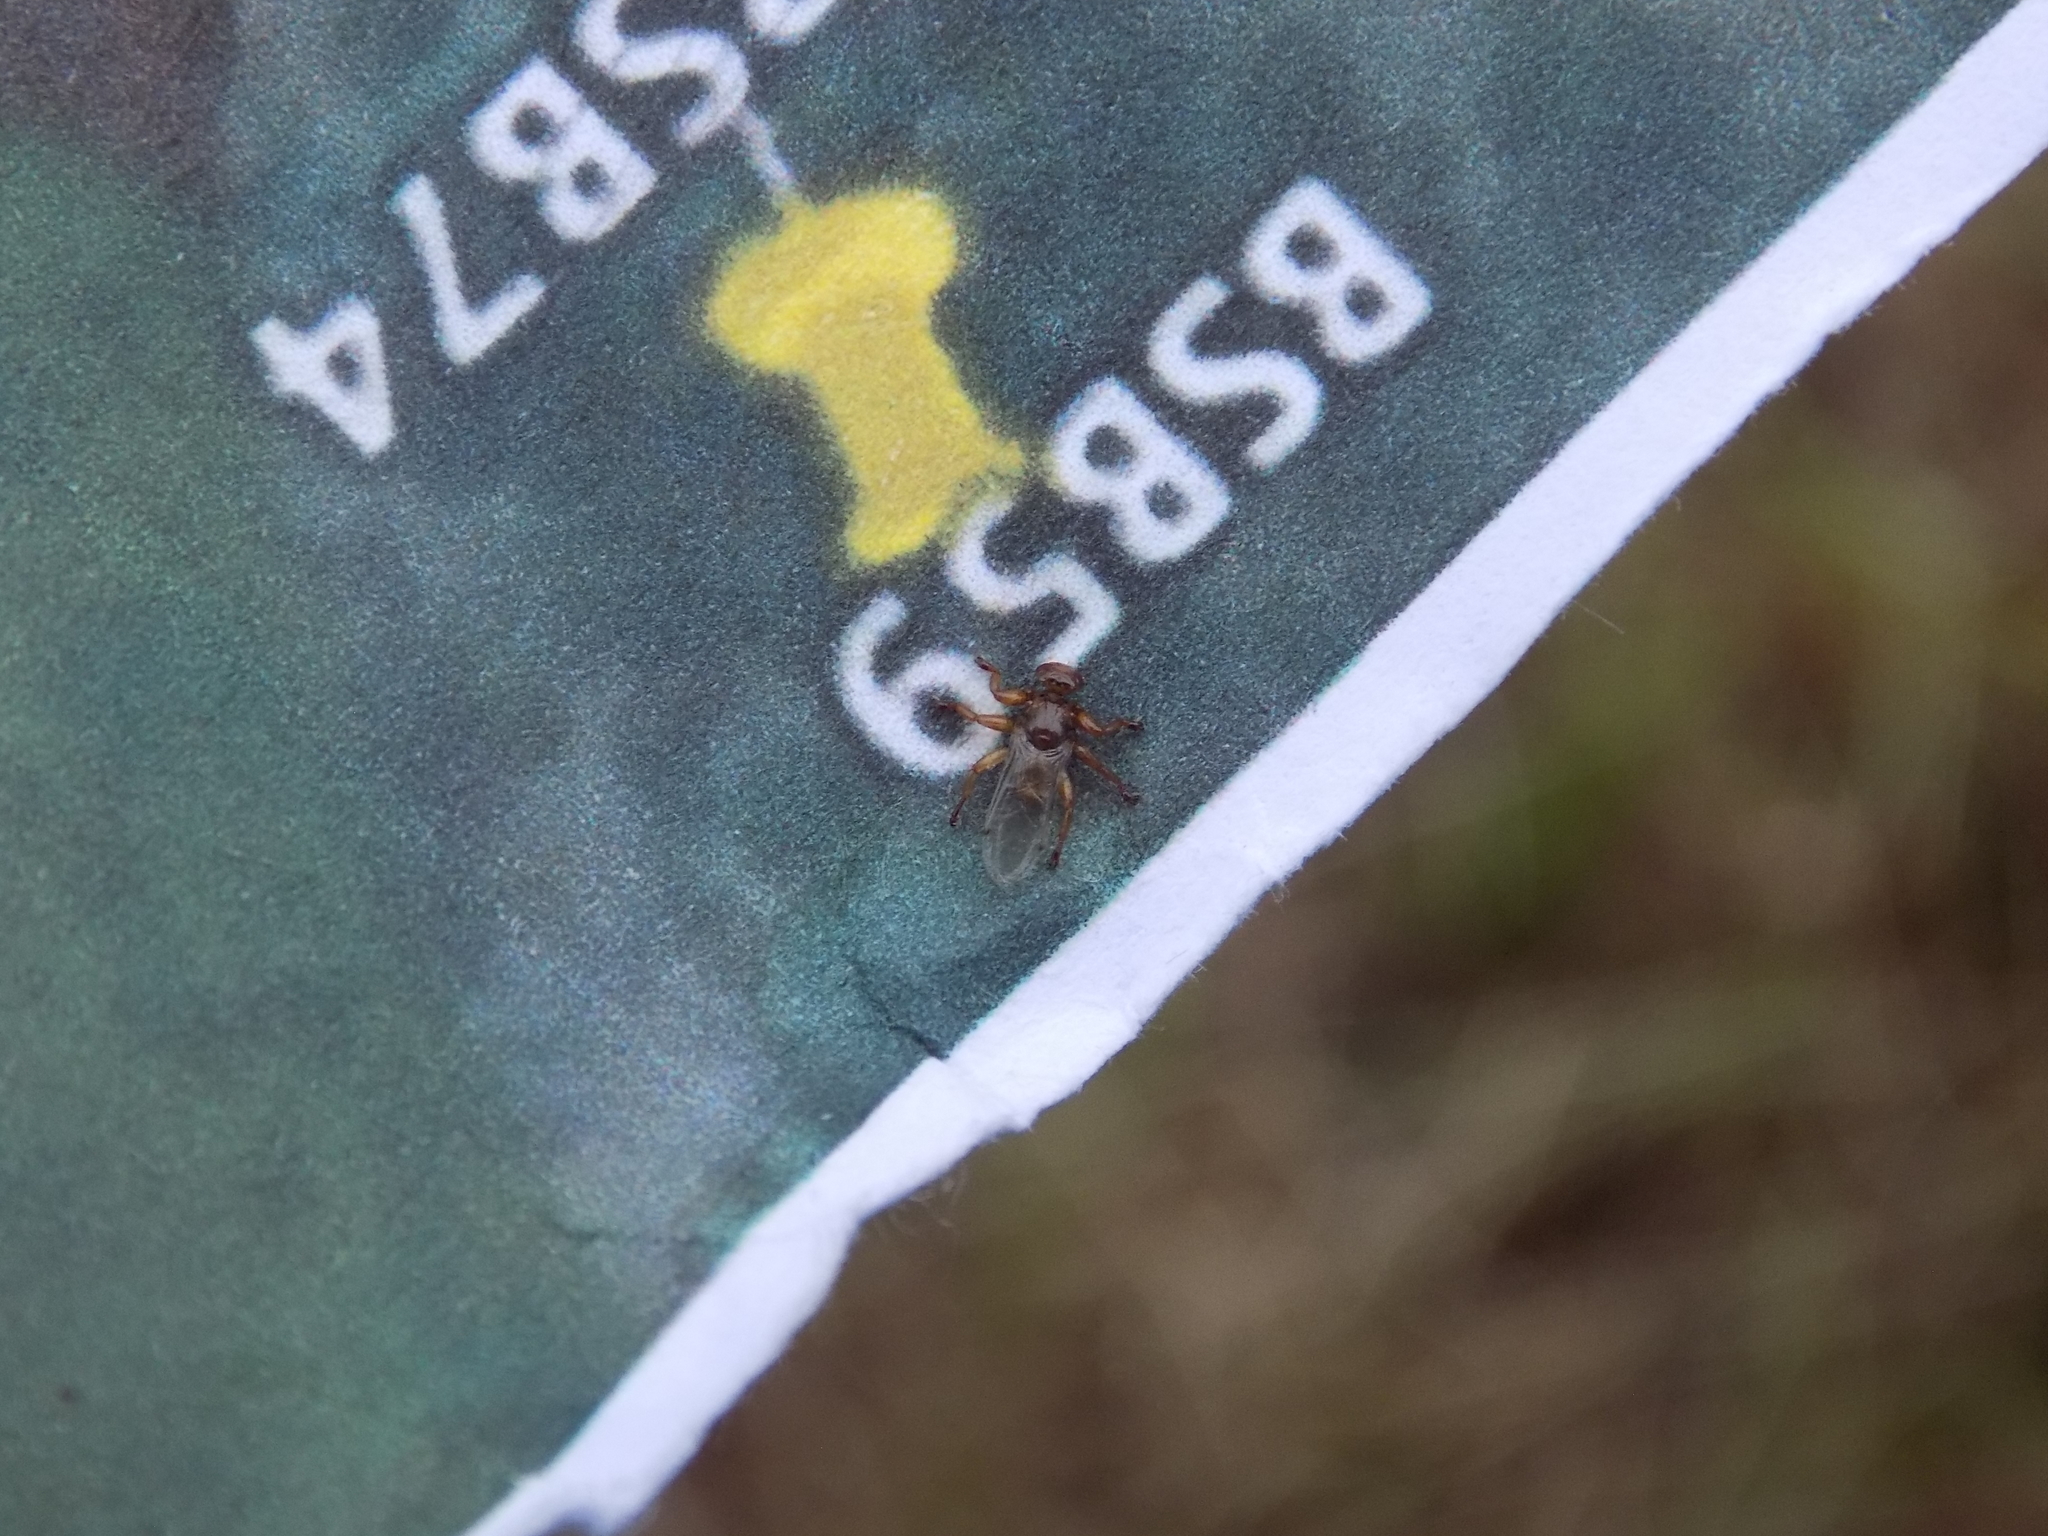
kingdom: Animalia
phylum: Arthropoda
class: Insecta
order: Diptera
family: Hippoboscidae
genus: Lipoptena
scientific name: Lipoptena mazamae
